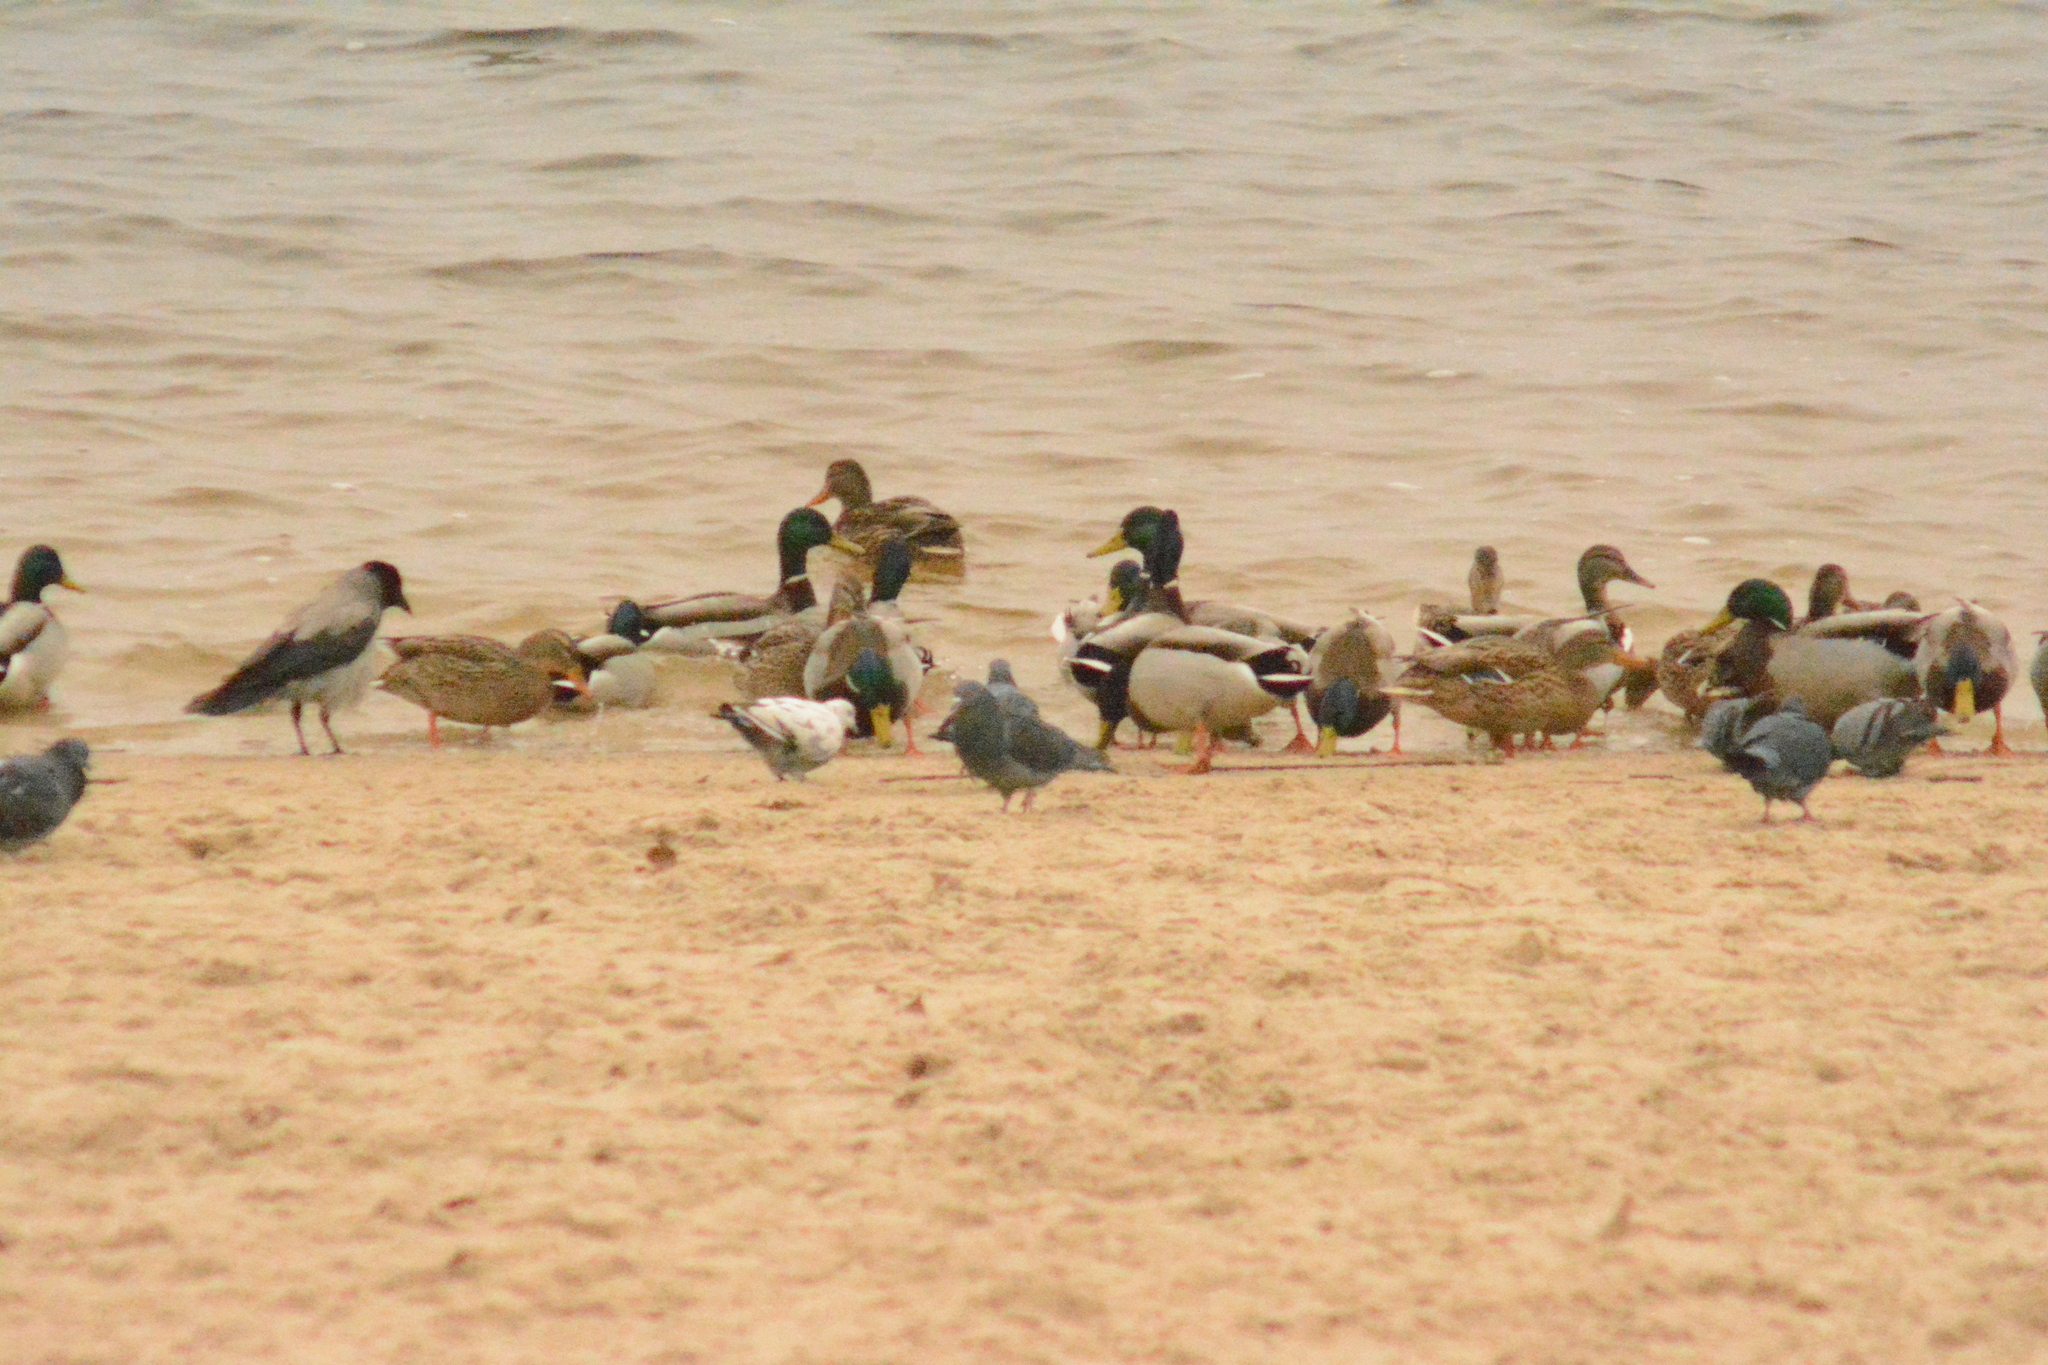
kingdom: Animalia
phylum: Chordata
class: Aves
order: Anseriformes
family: Anatidae
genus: Anas
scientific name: Anas platyrhynchos
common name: Mallard
